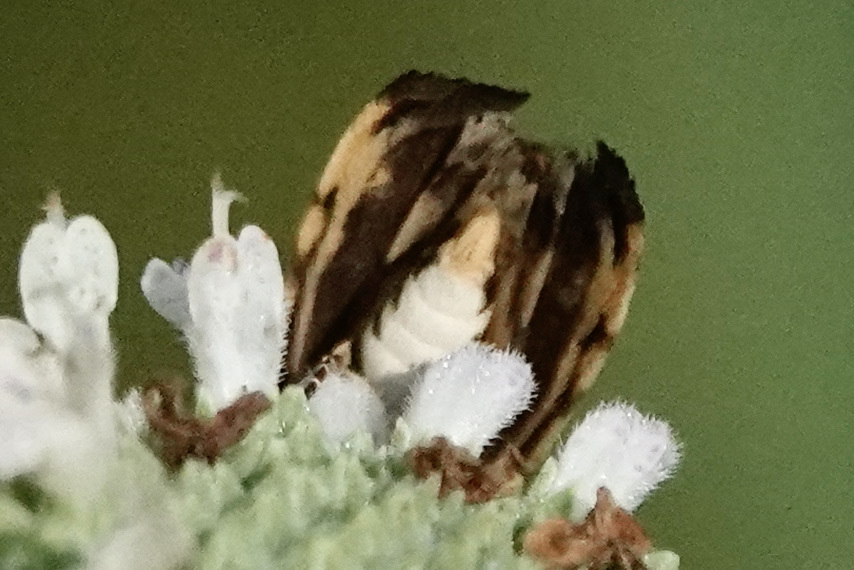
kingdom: Animalia
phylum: Arthropoda
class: Insecta
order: Lepidoptera
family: Noctuidae
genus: Acontia
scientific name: Acontia leo
